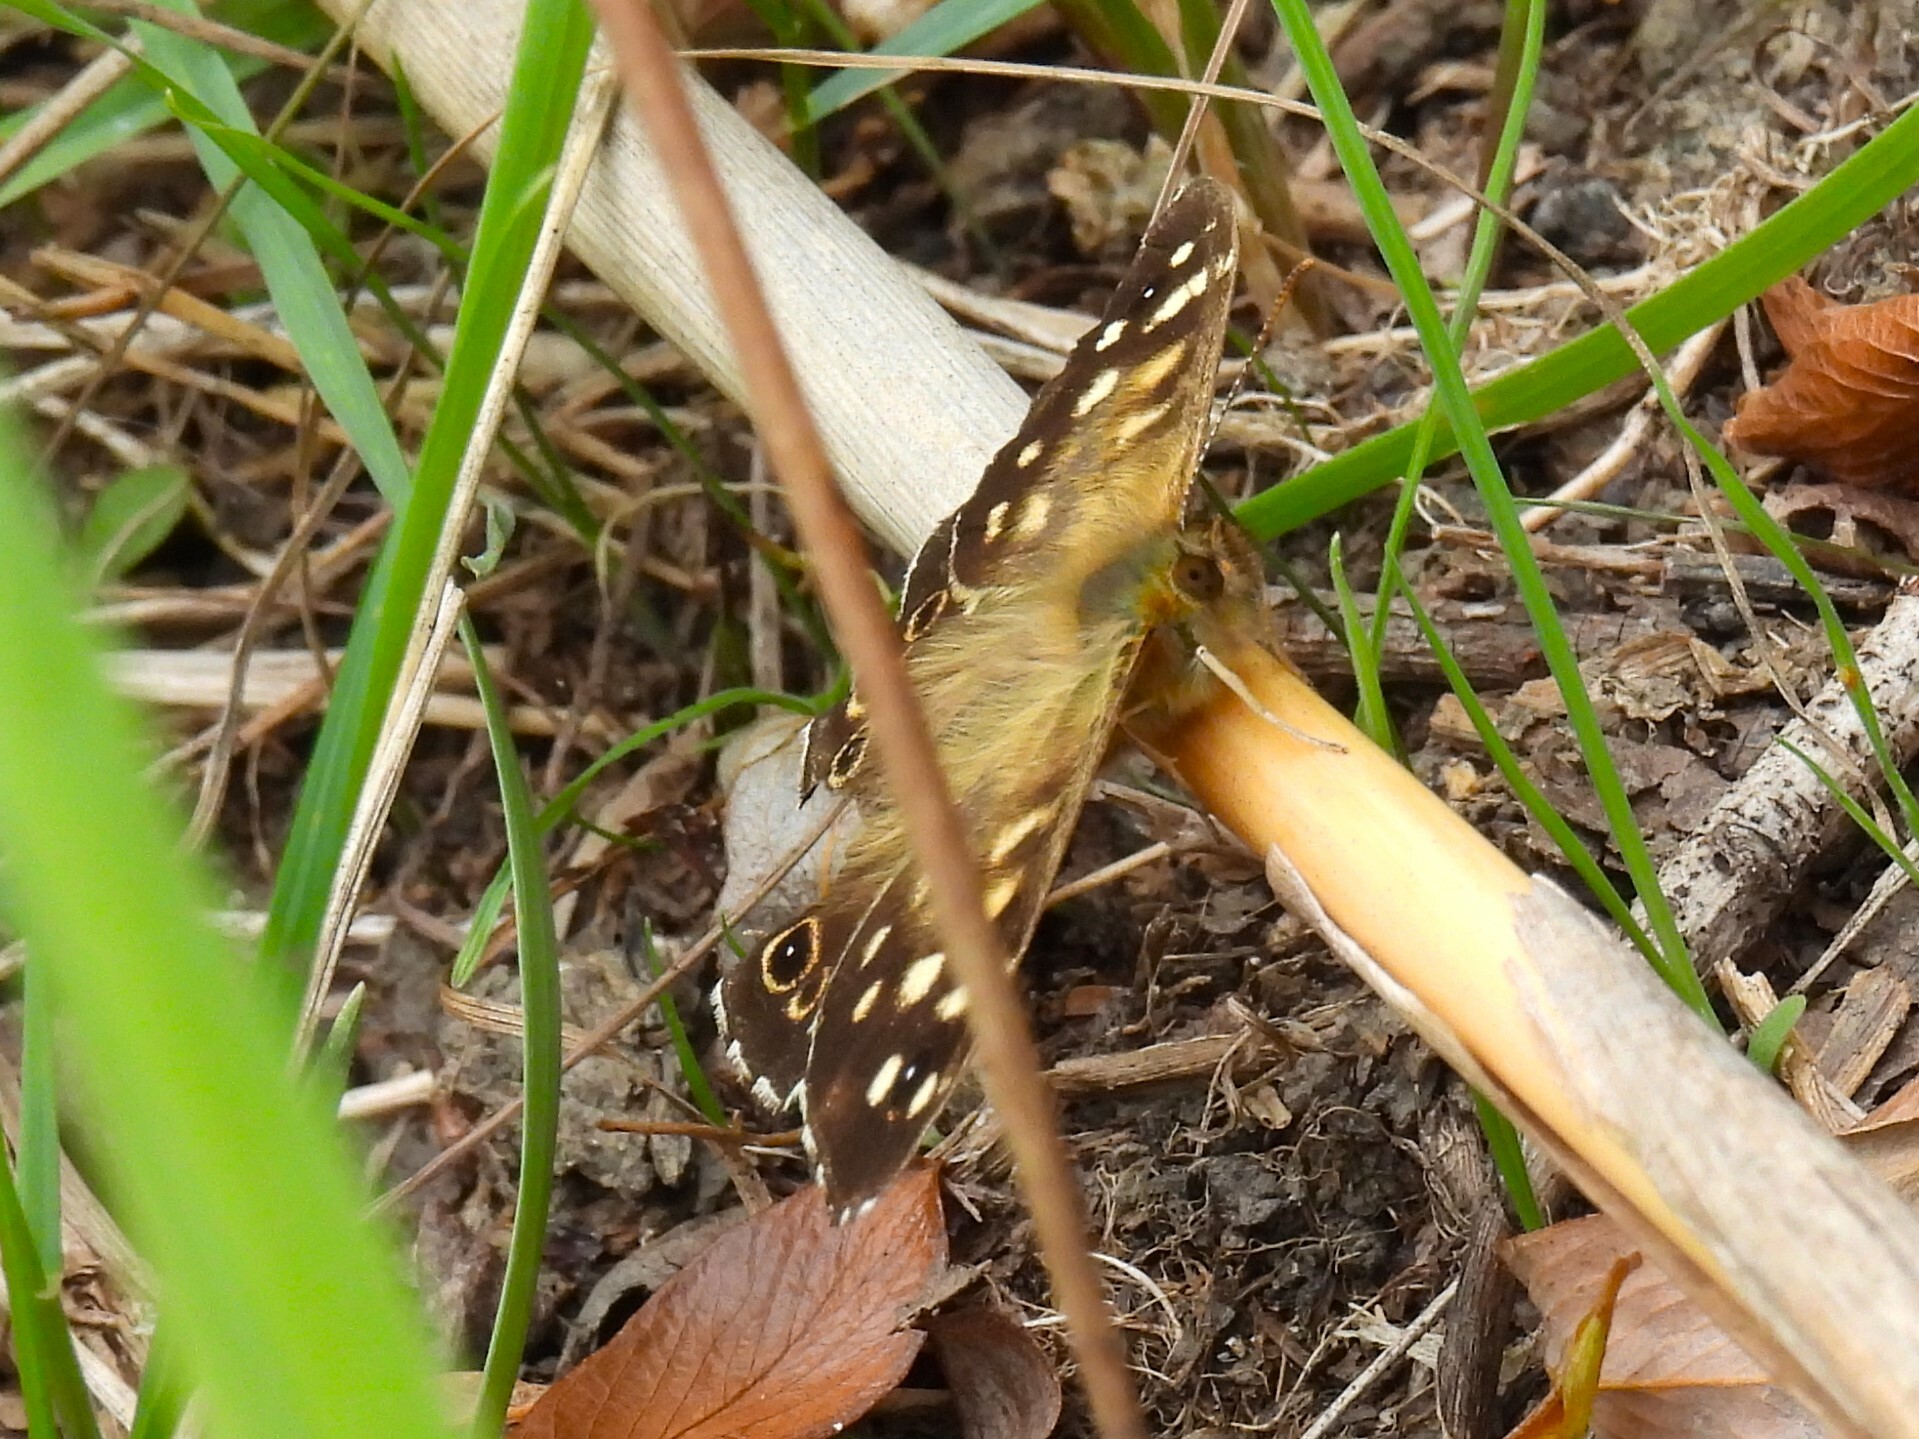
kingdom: Animalia
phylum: Arthropoda
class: Insecta
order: Lepidoptera
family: Nymphalidae
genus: Pararge
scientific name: Pararge aegeria
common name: Speckled wood
